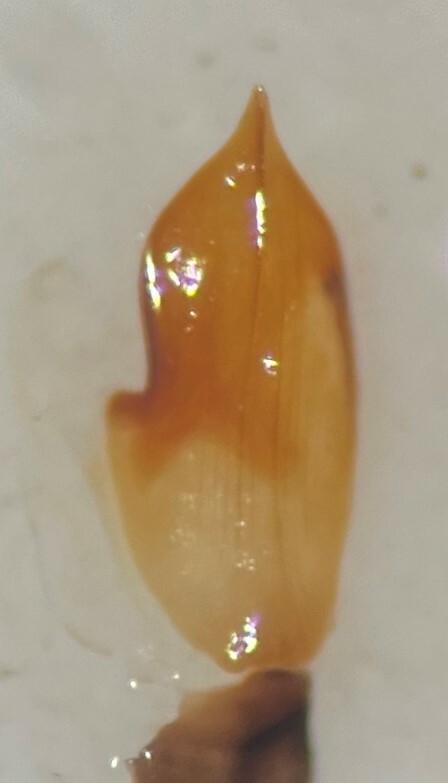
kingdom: Animalia
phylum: Arthropoda
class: Insecta
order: Coleoptera
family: Dytiscidae
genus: Laccophilus
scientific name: Laccophilus salvini
